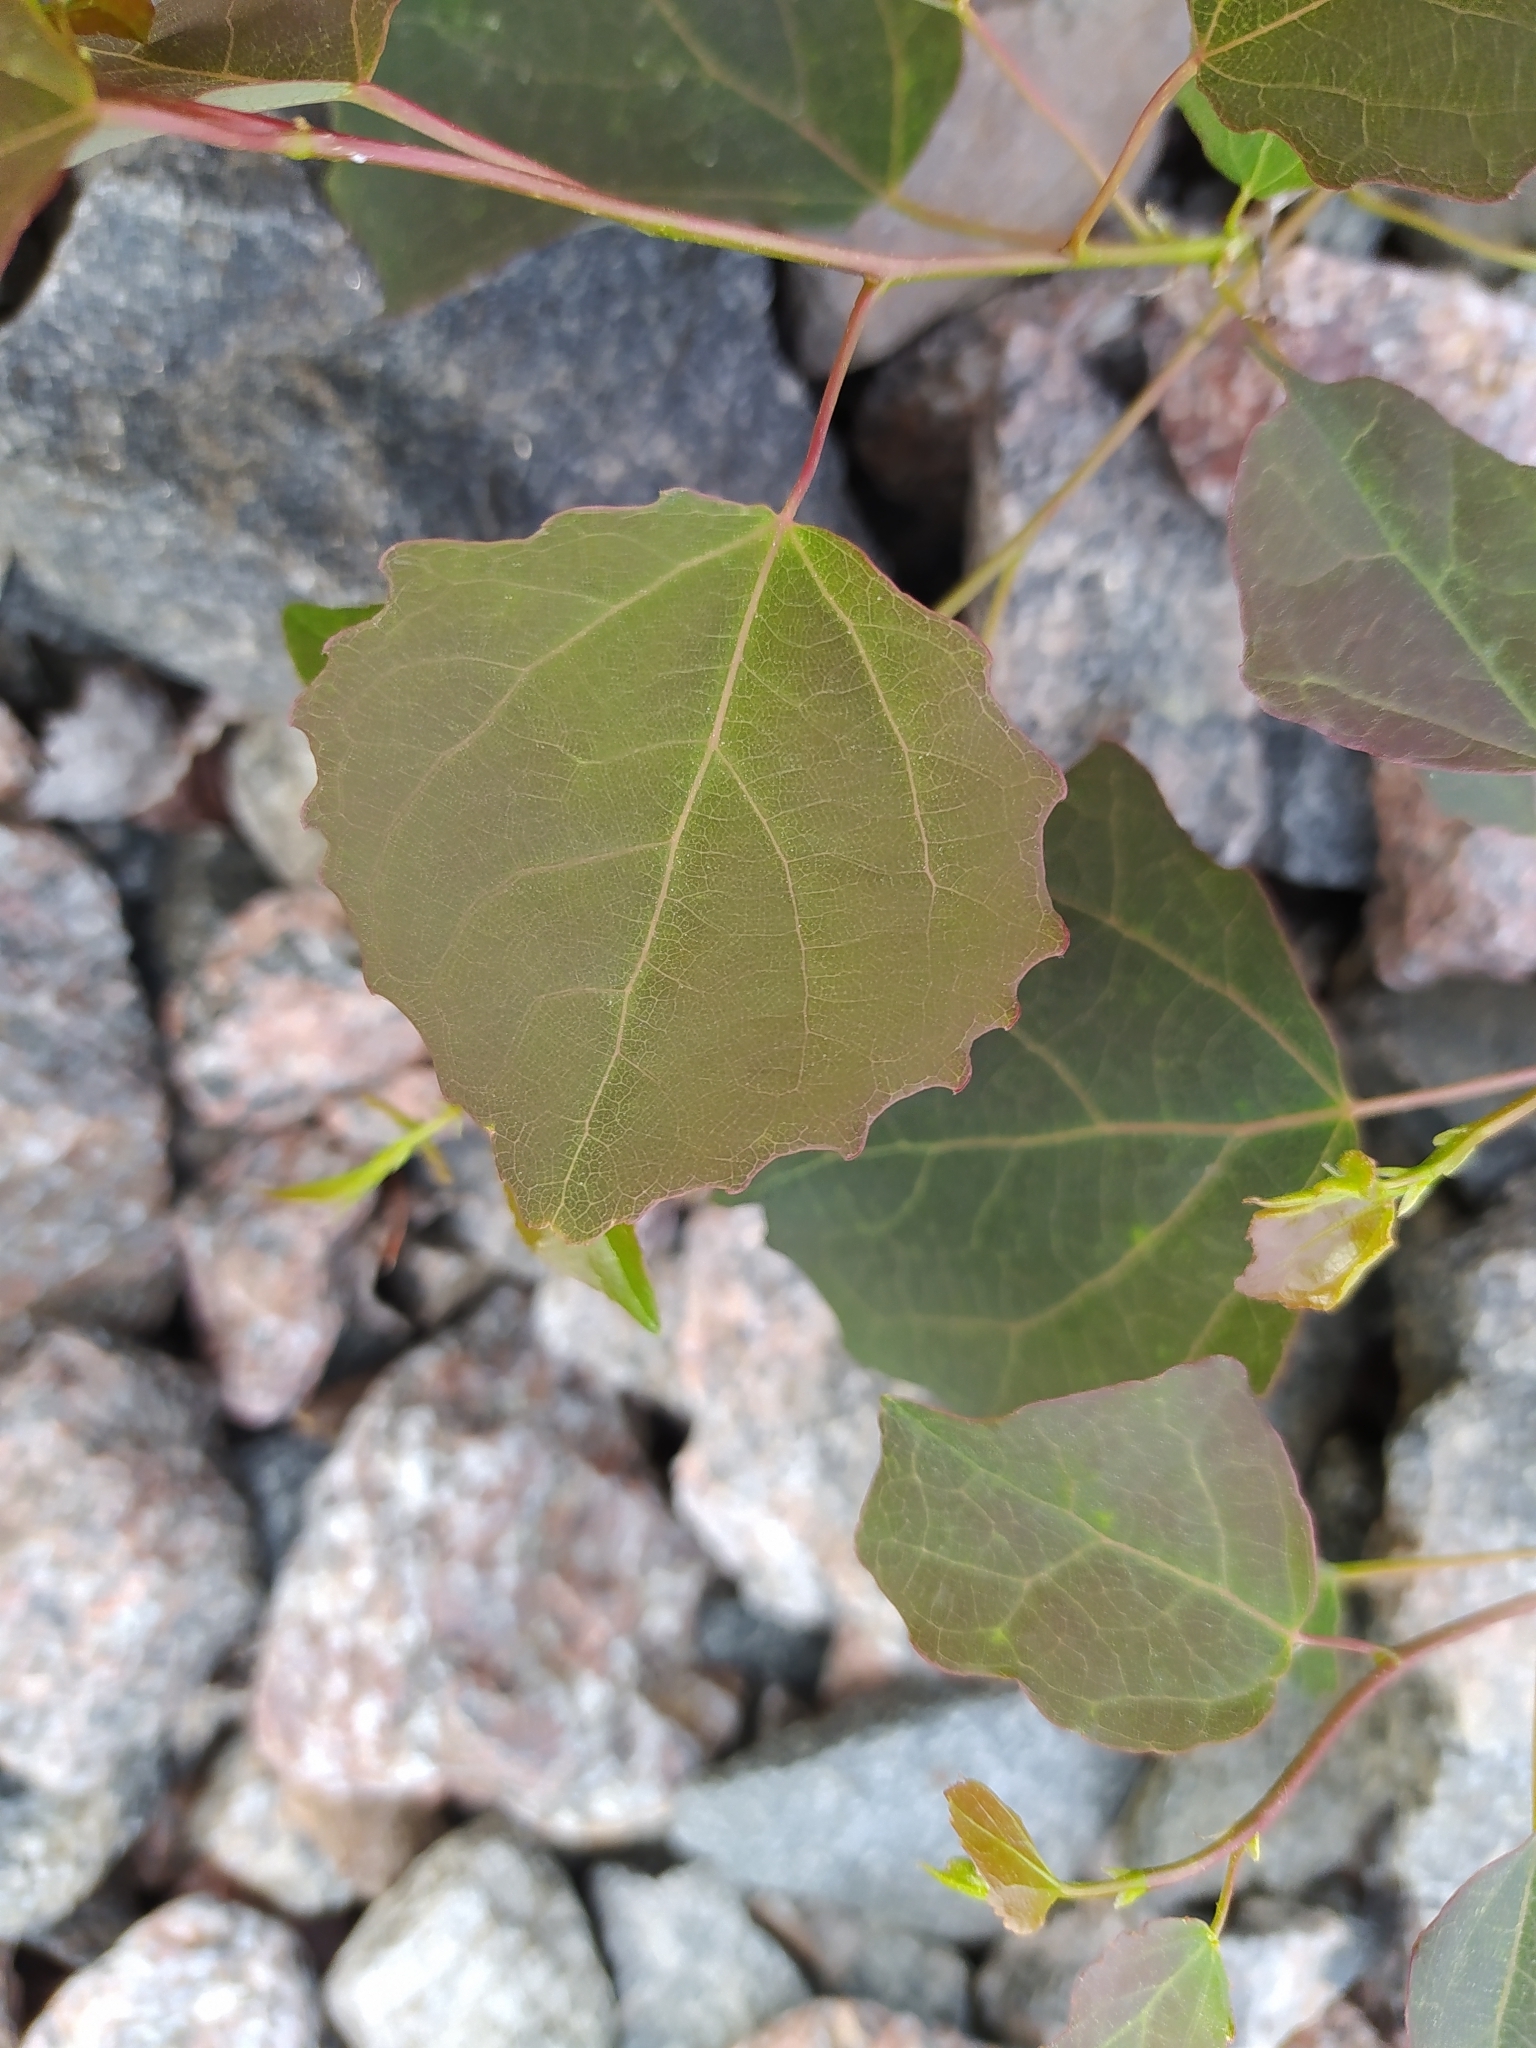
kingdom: Plantae
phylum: Tracheophyta
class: Magnoliopsida
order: Malpighiales
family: Salicaceae
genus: Populus
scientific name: Populus tremula
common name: European aspen
